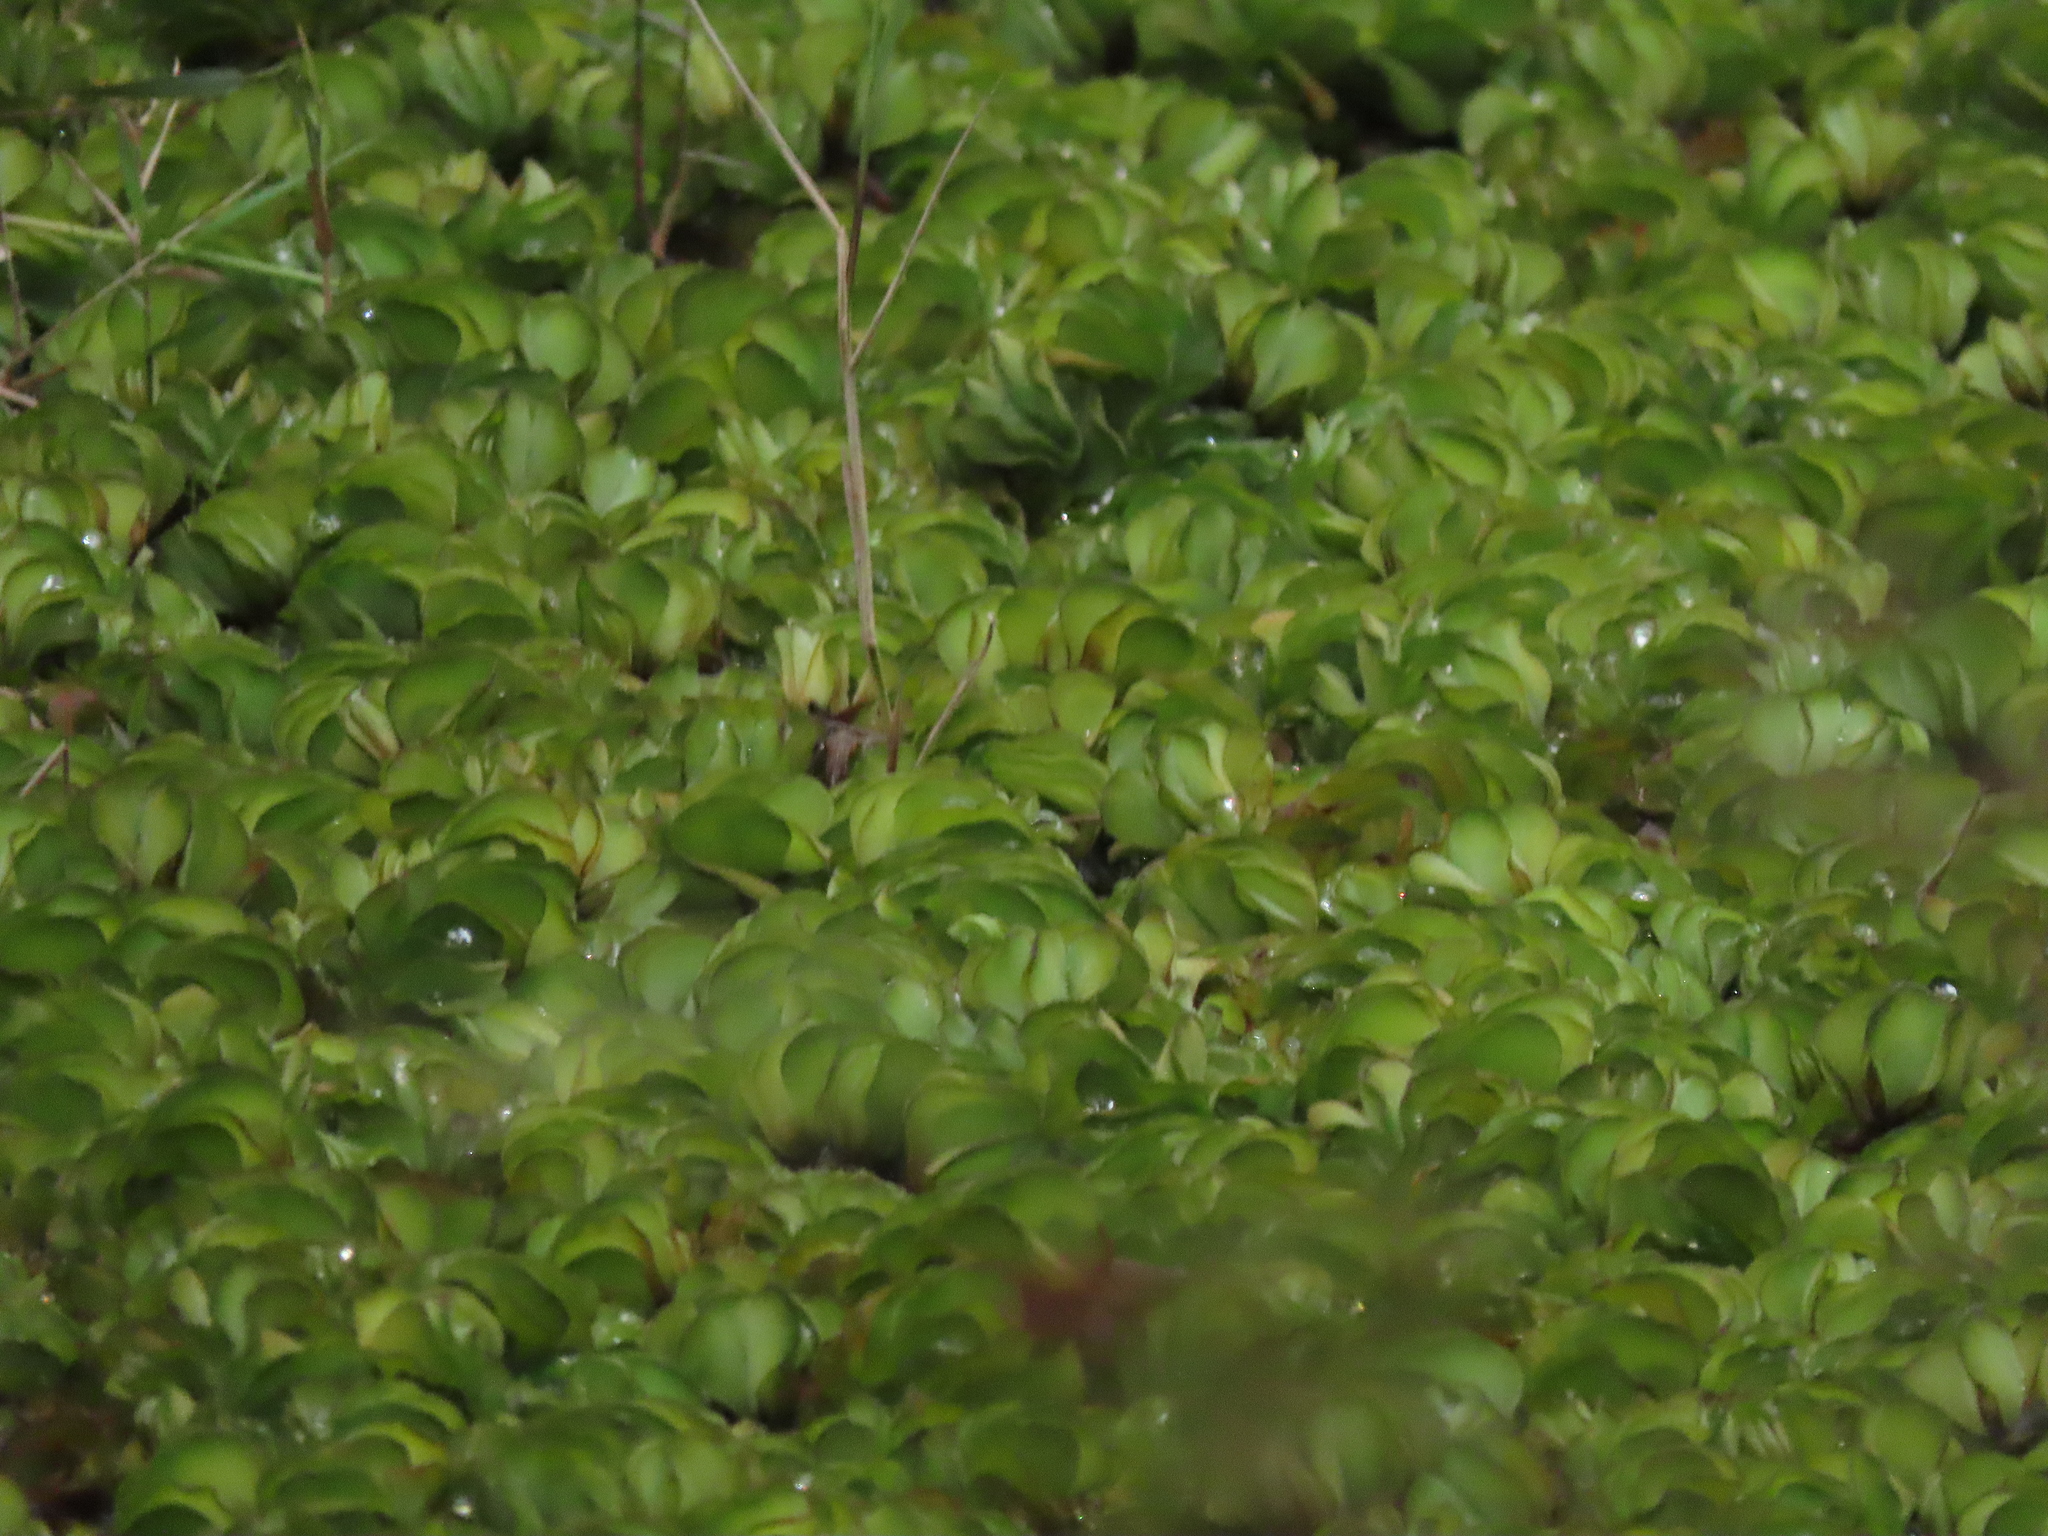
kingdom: Plantae
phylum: Tracheophyta
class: Polypodiopsida
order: Salviniales
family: Salviniaceae
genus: Salvinia
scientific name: Salvinia molesta
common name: Kariba weed
